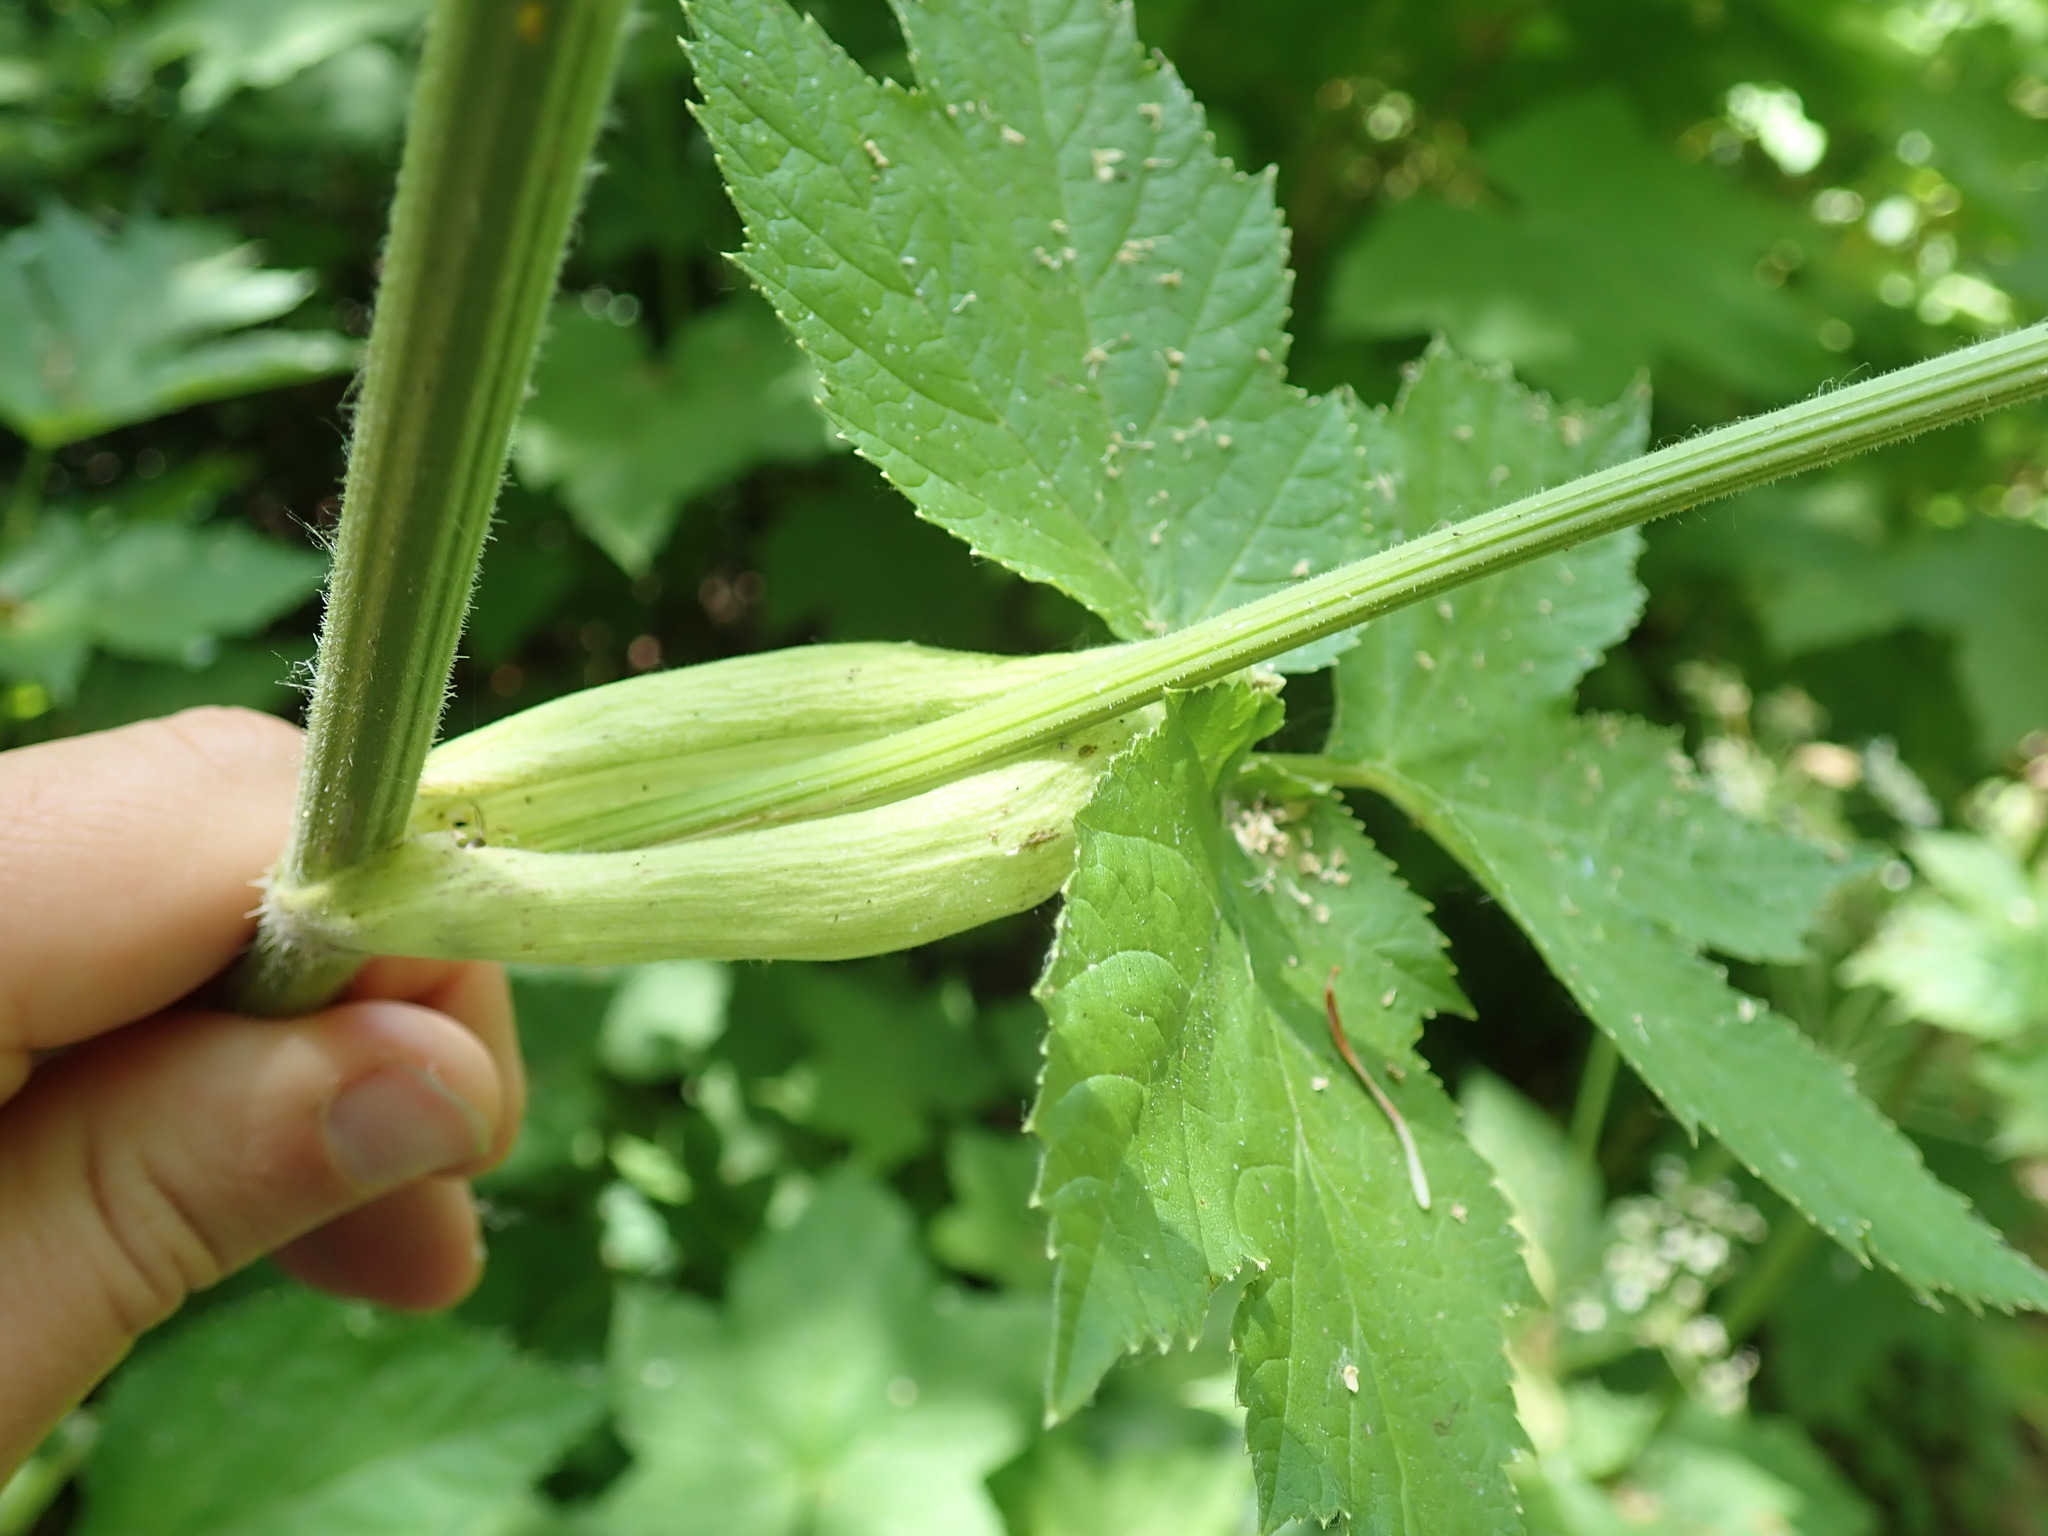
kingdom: Plantae
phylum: Tracheophyta
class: Magnoliopsida
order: Apiales
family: Apiaceae
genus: Heracleum
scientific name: Heracleum maximum
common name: American cow parsnip
